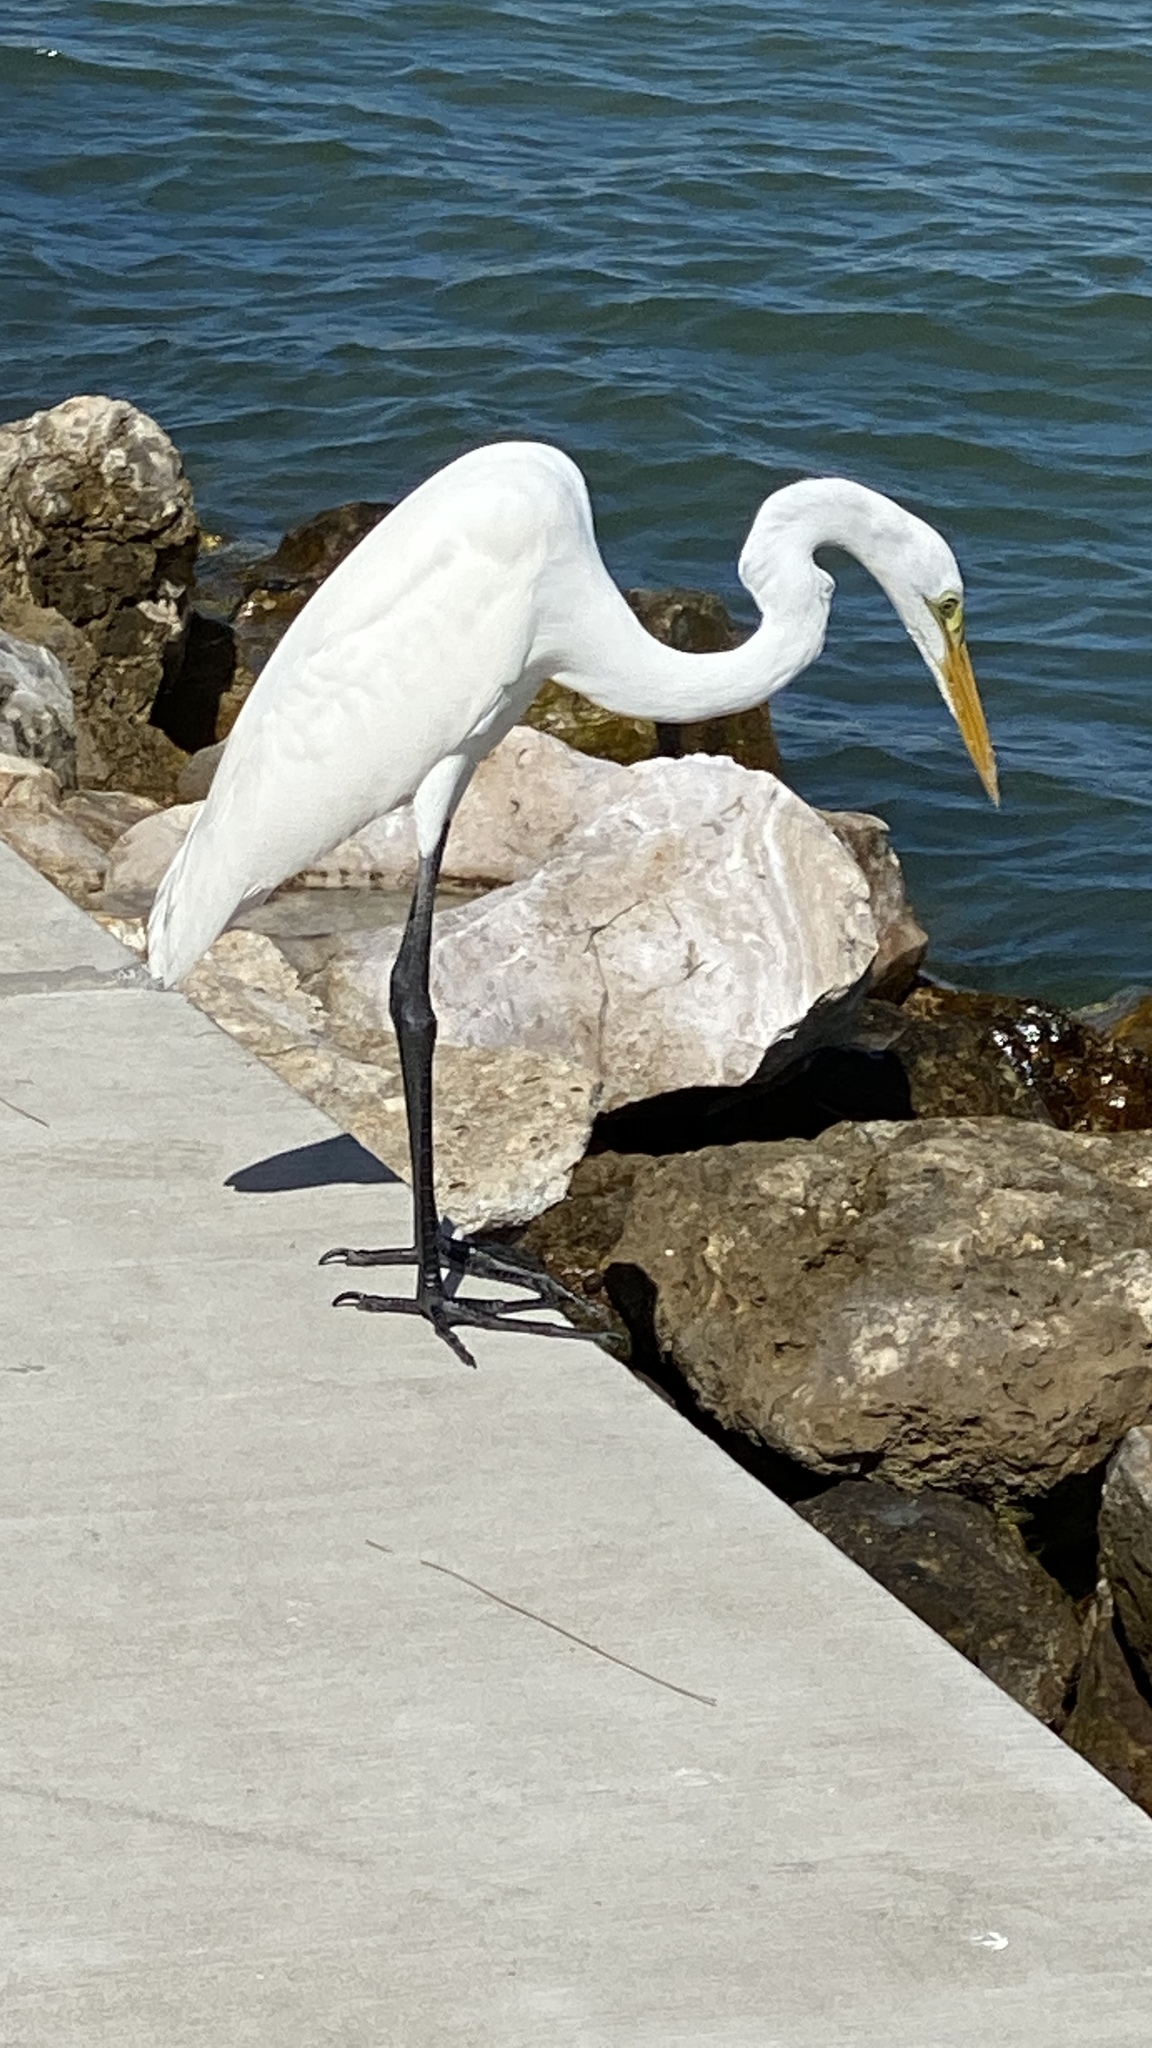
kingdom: Animalia
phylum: Chordata
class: Aves
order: Pelecaniformes
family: Ardeidae
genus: Ardea
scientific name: Ardea alba
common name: Great egret
